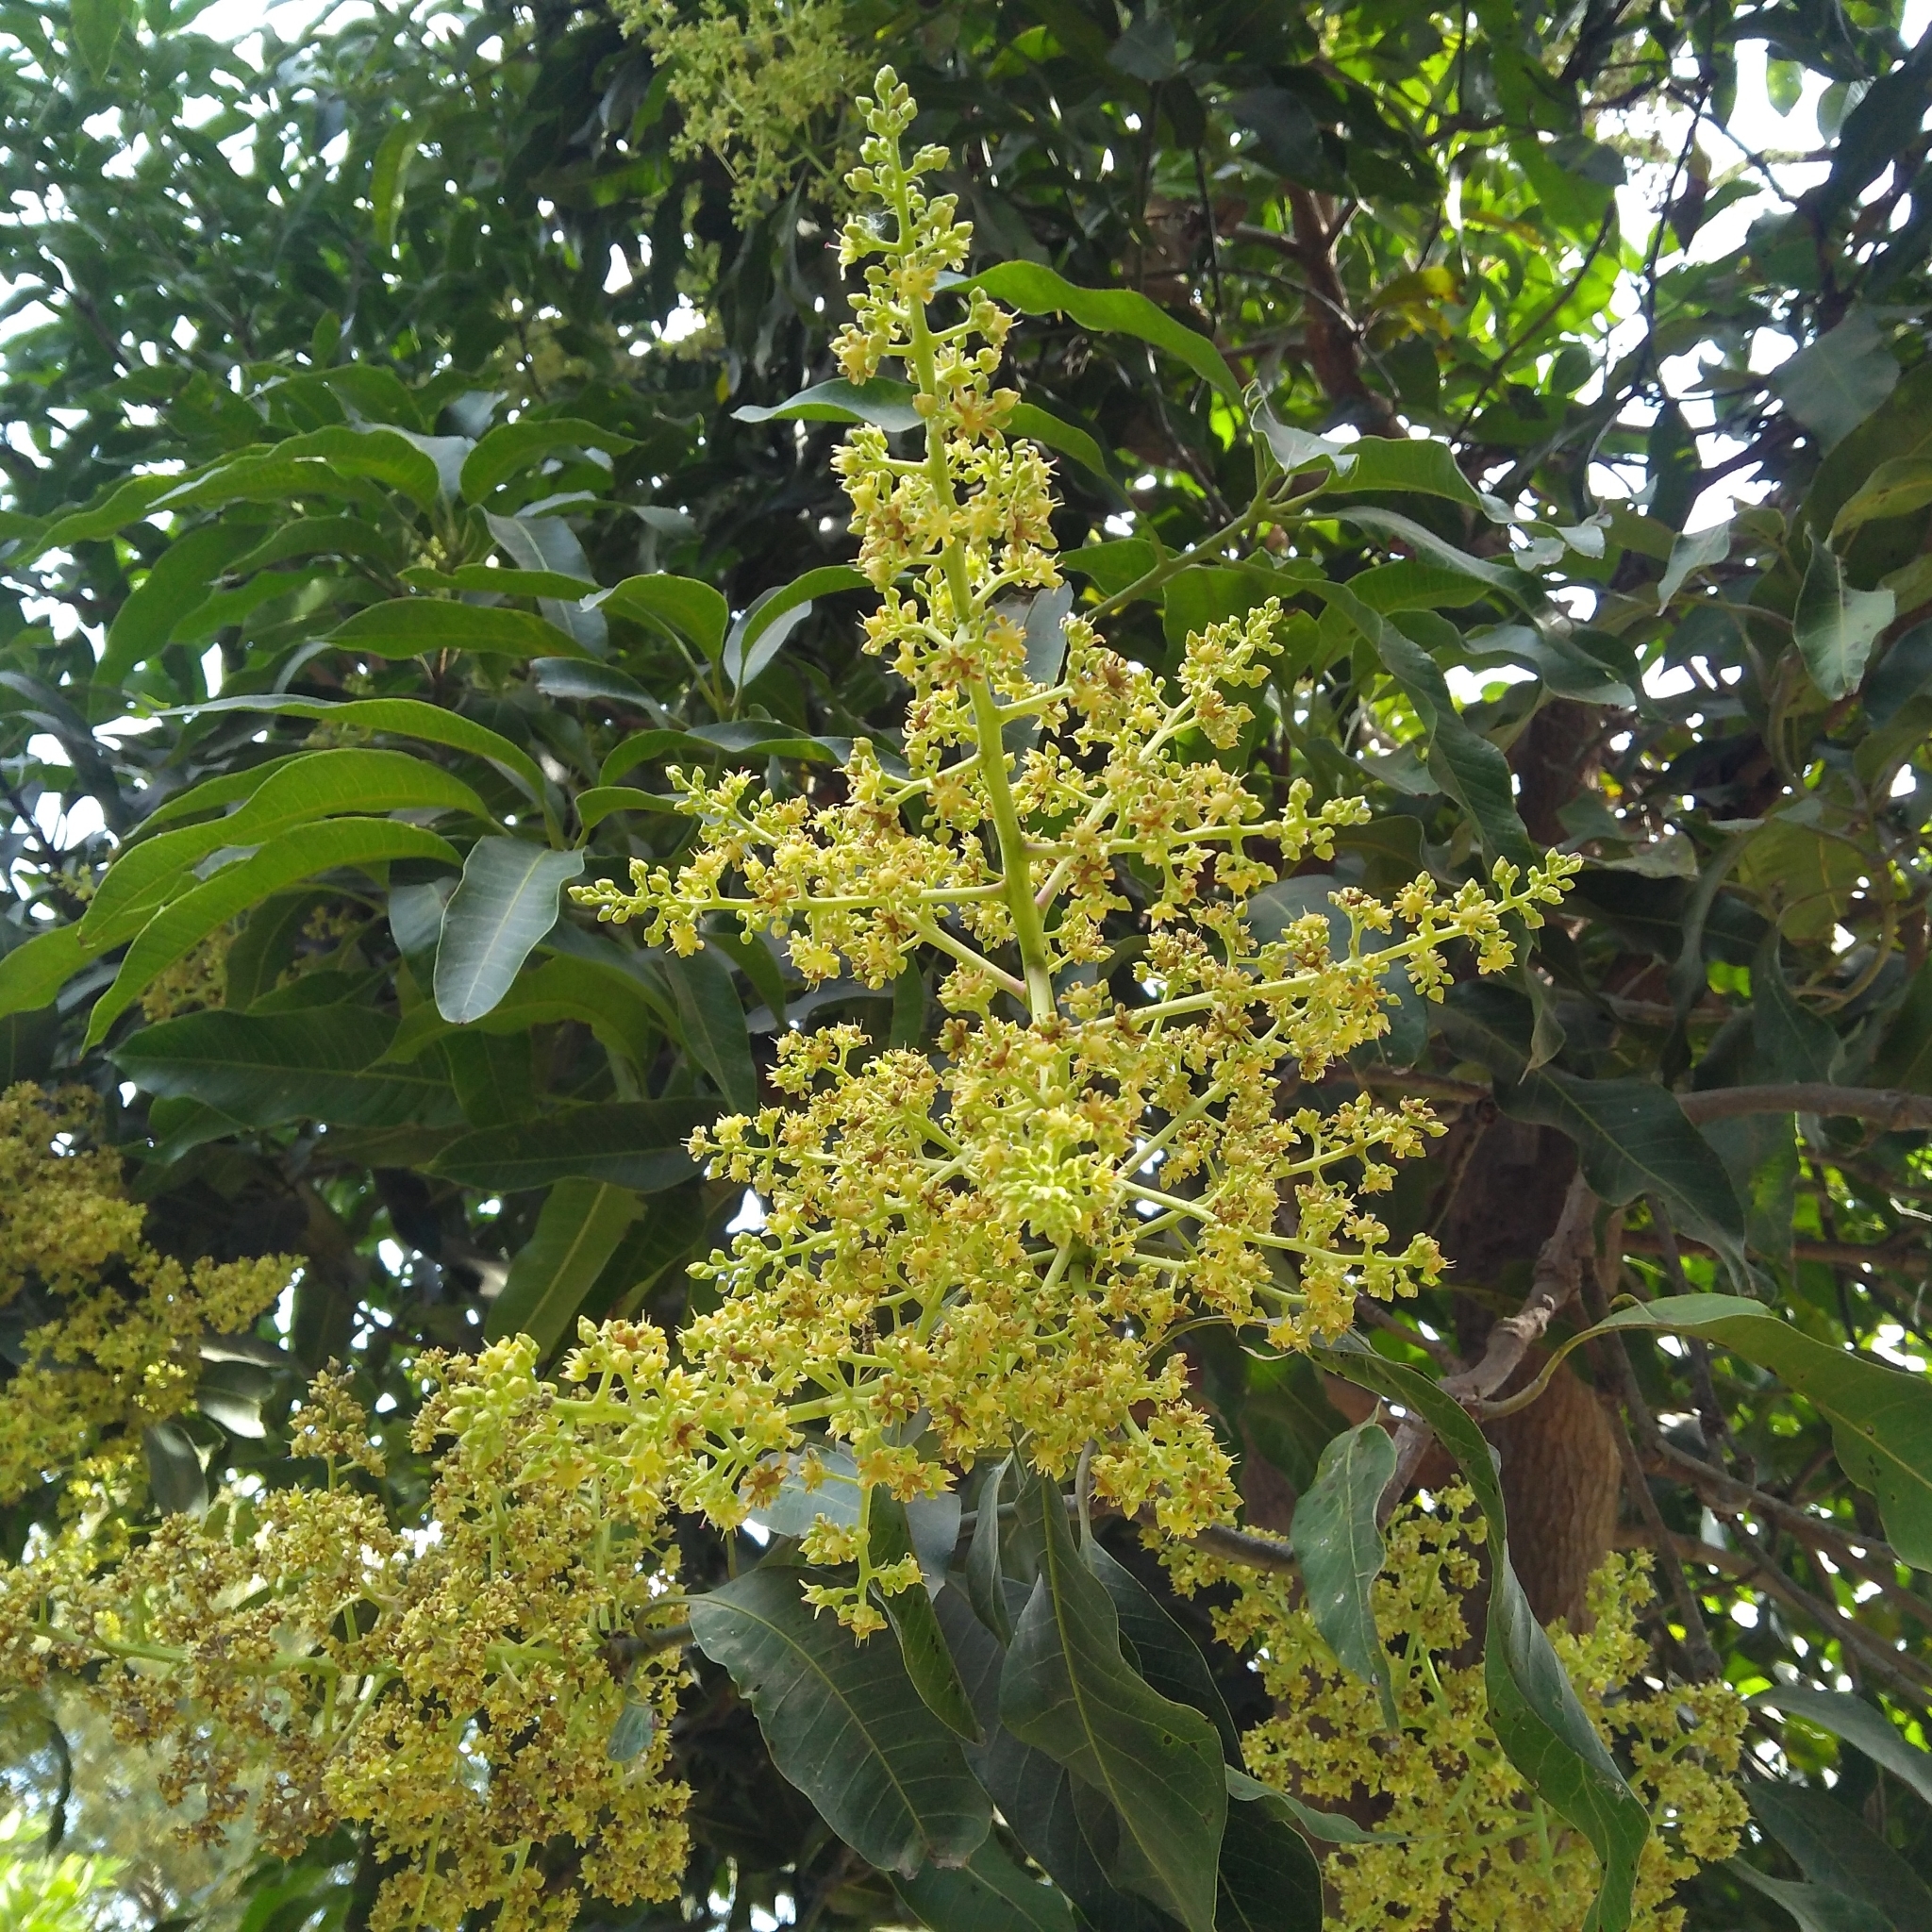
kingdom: Plantae
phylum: Tracheophyta
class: Magnoliopsida
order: Sapindales
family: Anacardiaceae
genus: Mangifera
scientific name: Mangifera indica
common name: Mango
